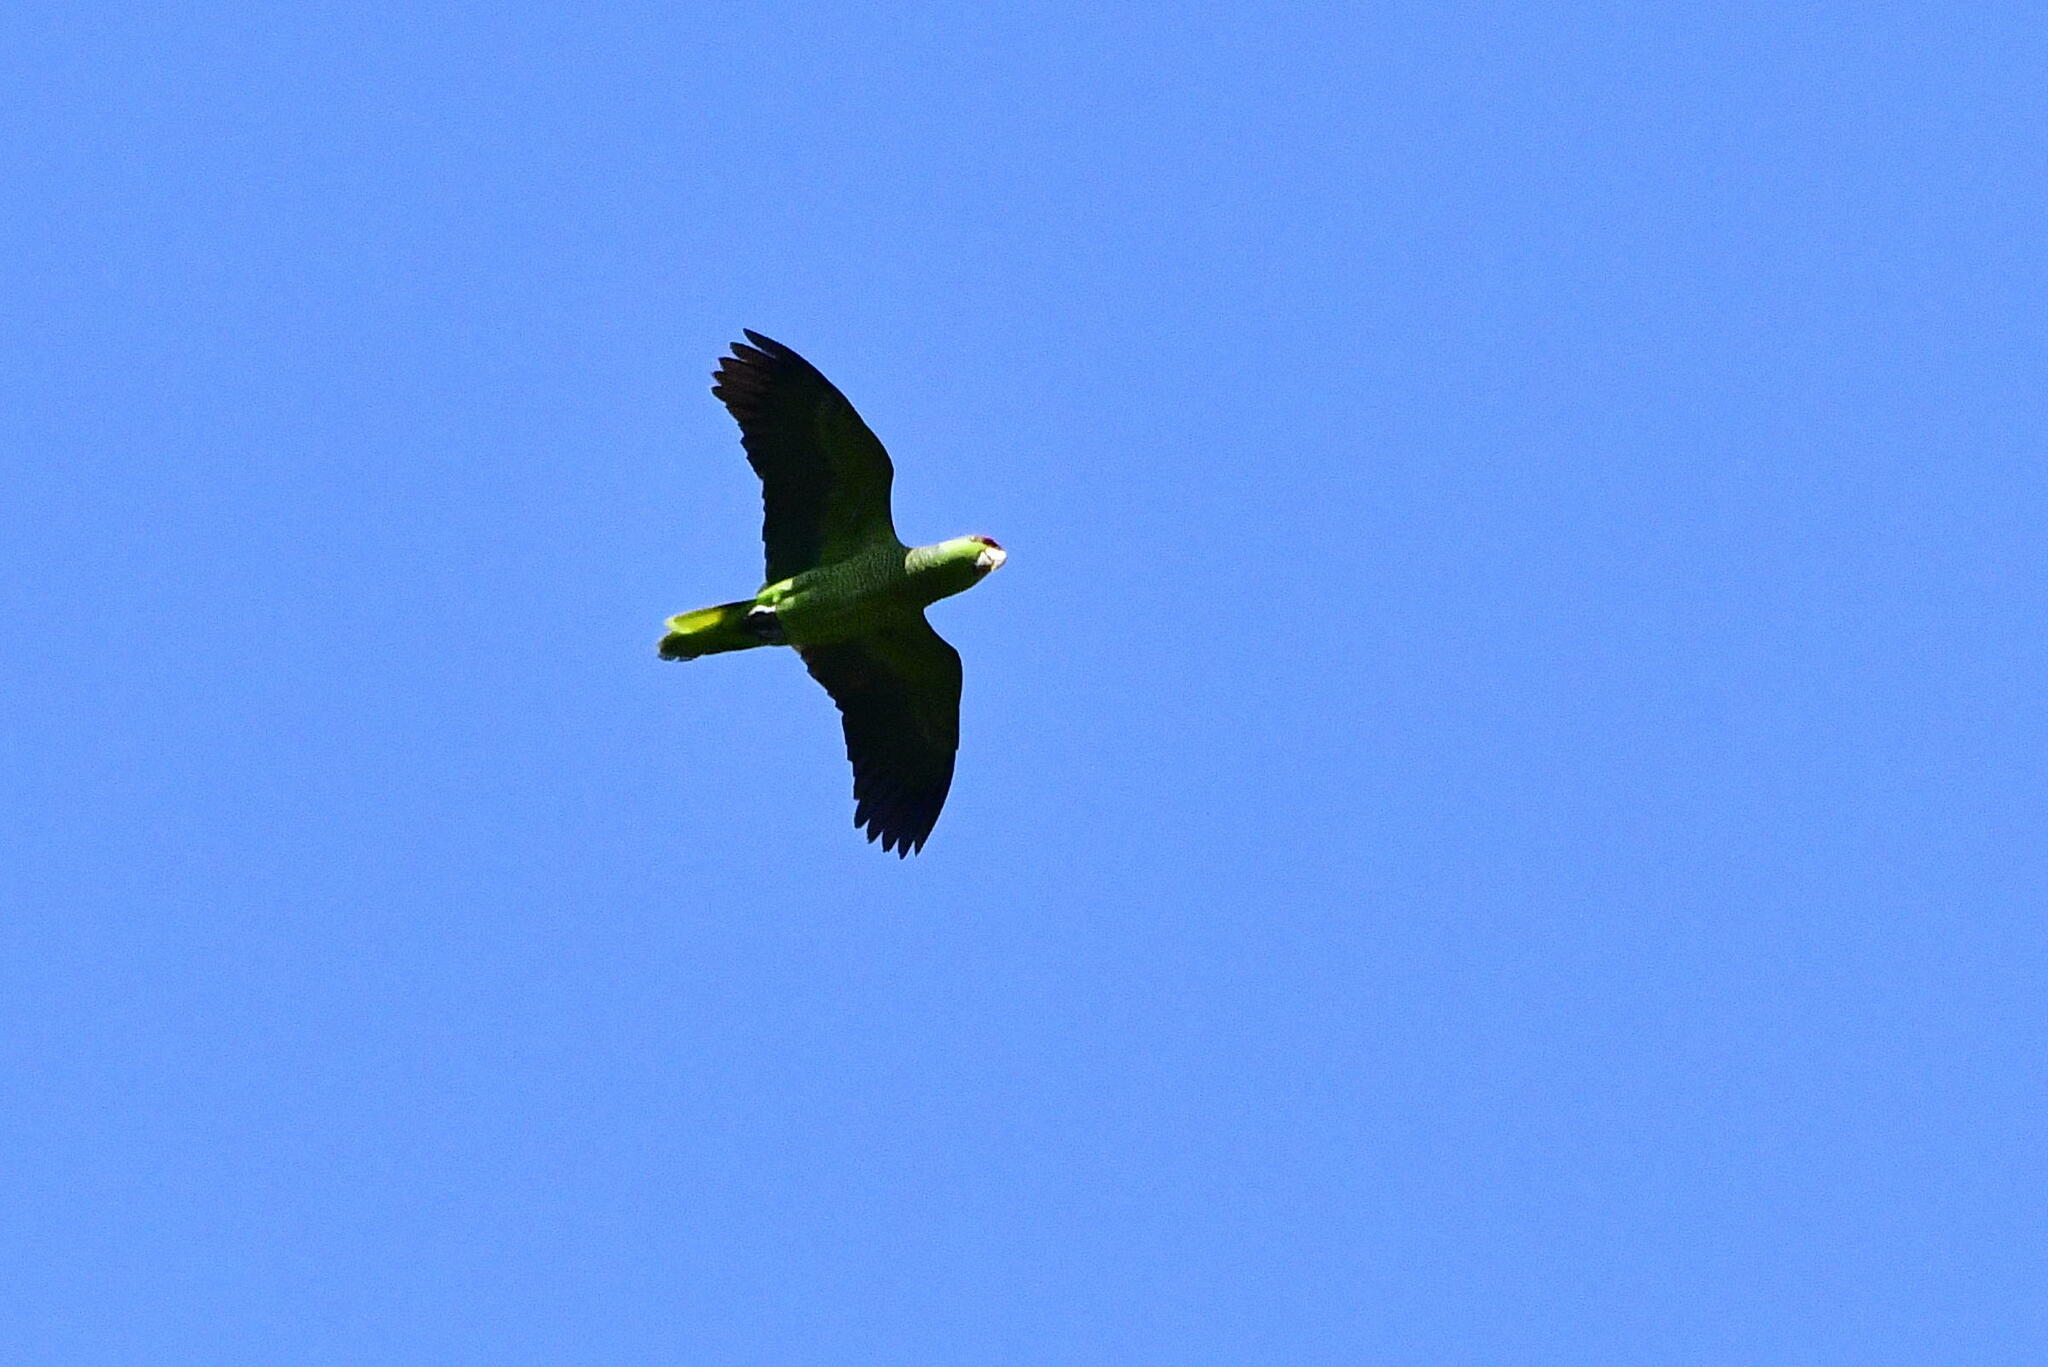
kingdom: Animalia
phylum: Chordata
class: Aves
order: Psittaciformes
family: Psittacidae
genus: Amazona
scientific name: Amazona finschi
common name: Lilac-crowned amazon
